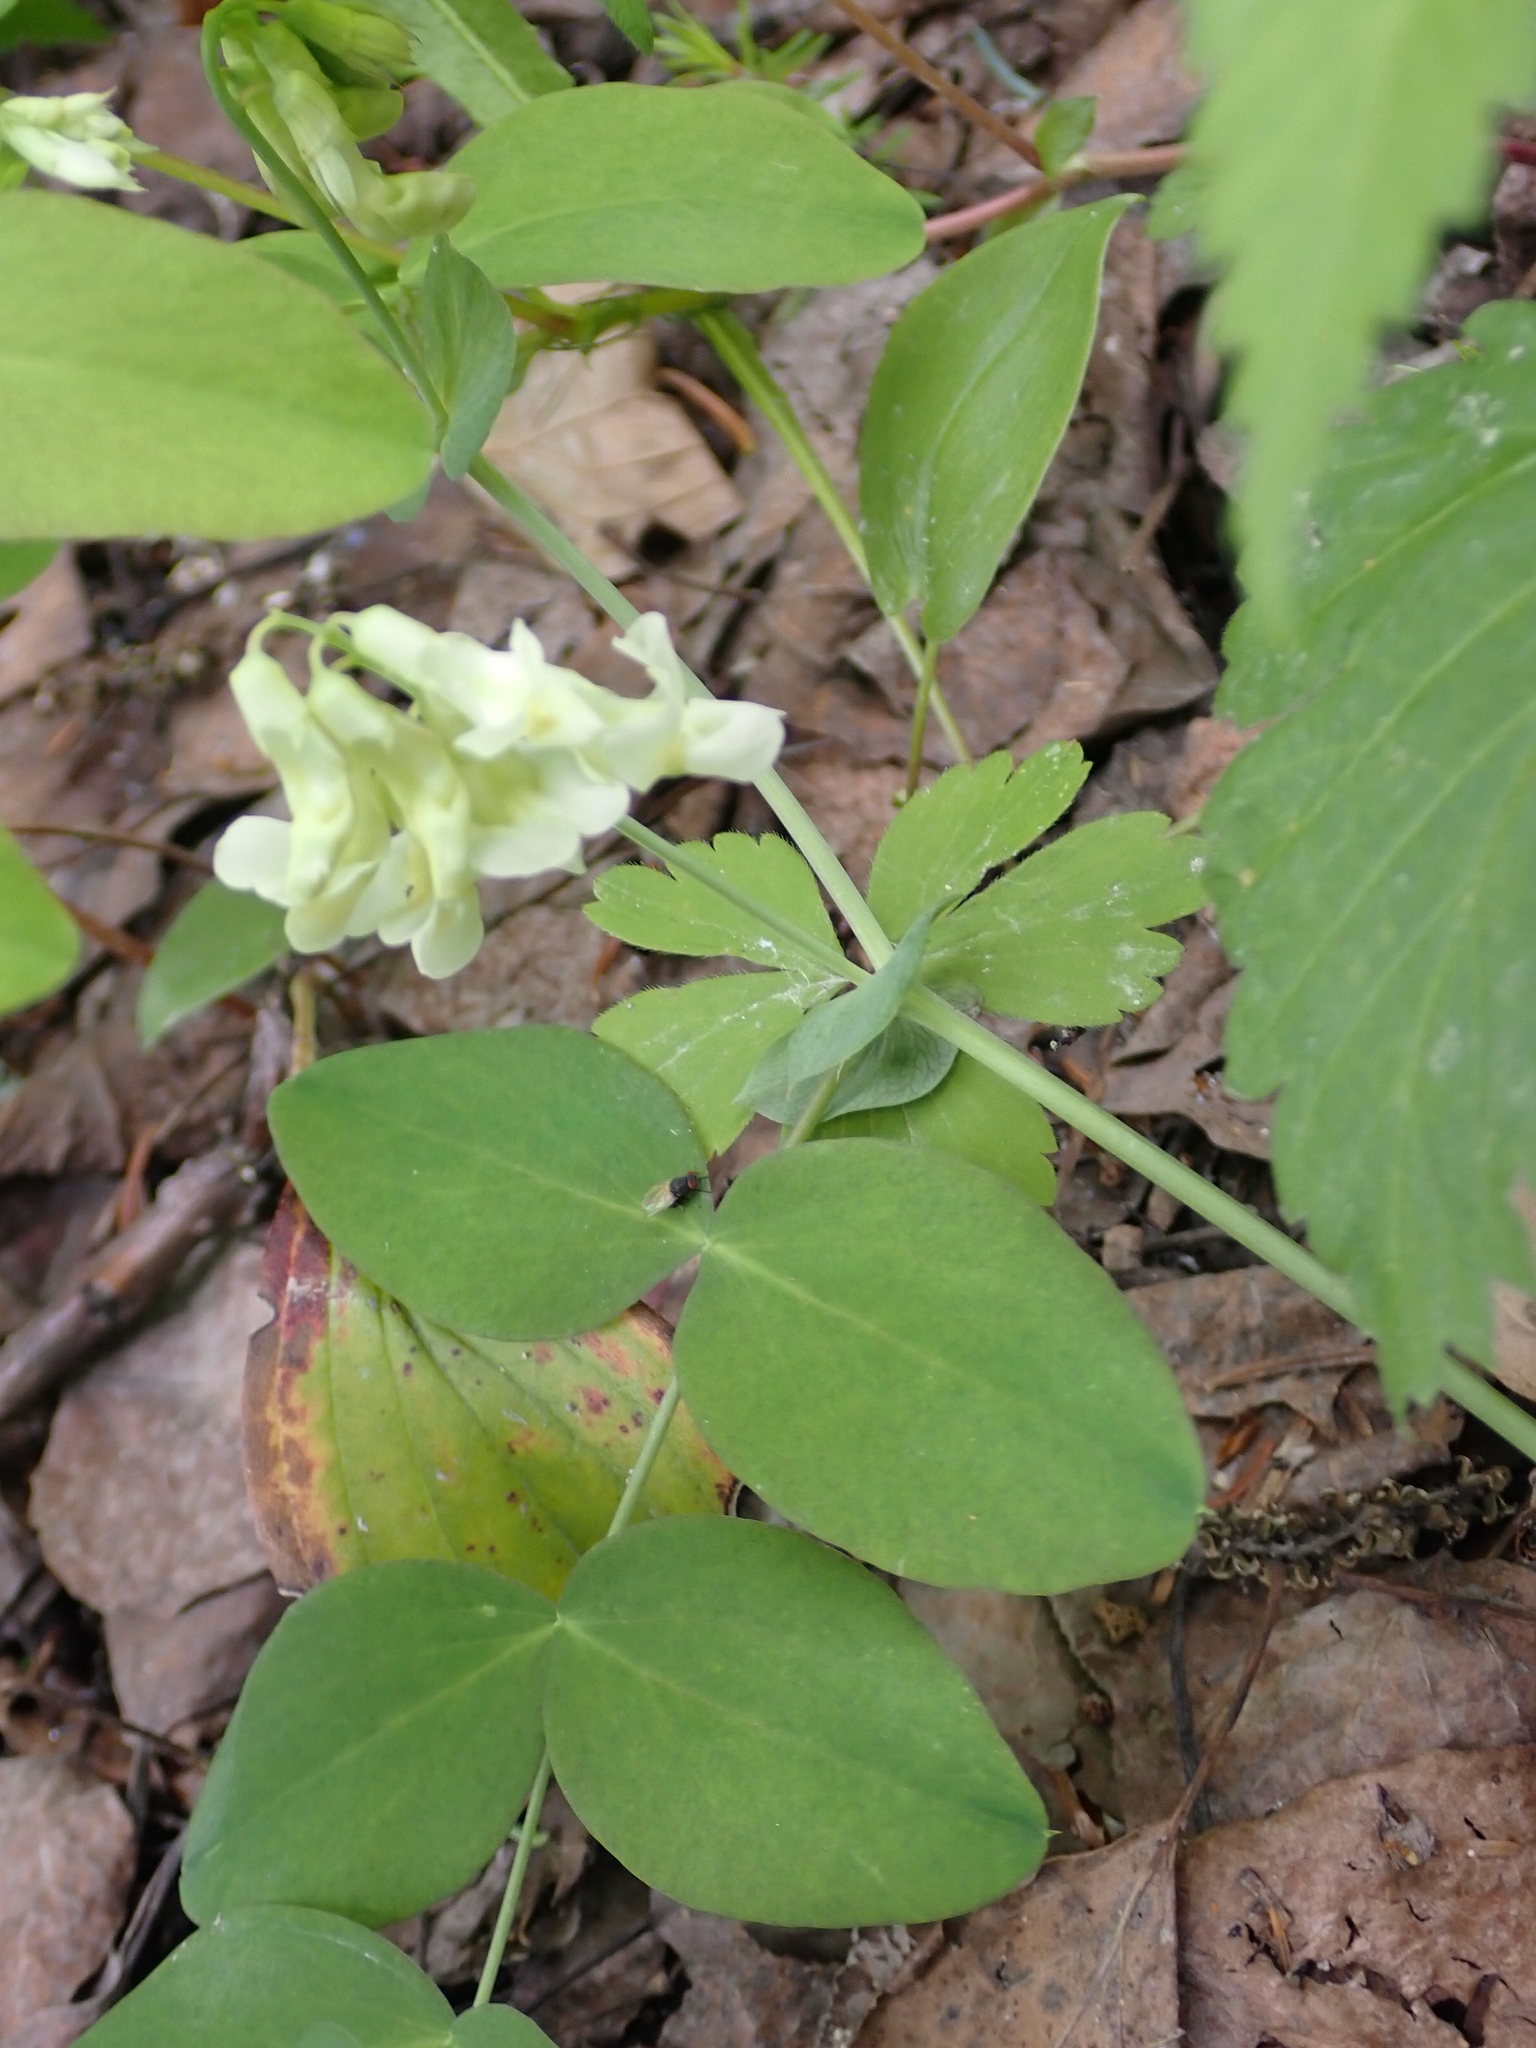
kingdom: Plantae
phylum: Tracheophyta
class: Magnoliopsida
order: Fabales
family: Fabaceae
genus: Lathyrus
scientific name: Lathyrus ochroleucus
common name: Pale vetchling
